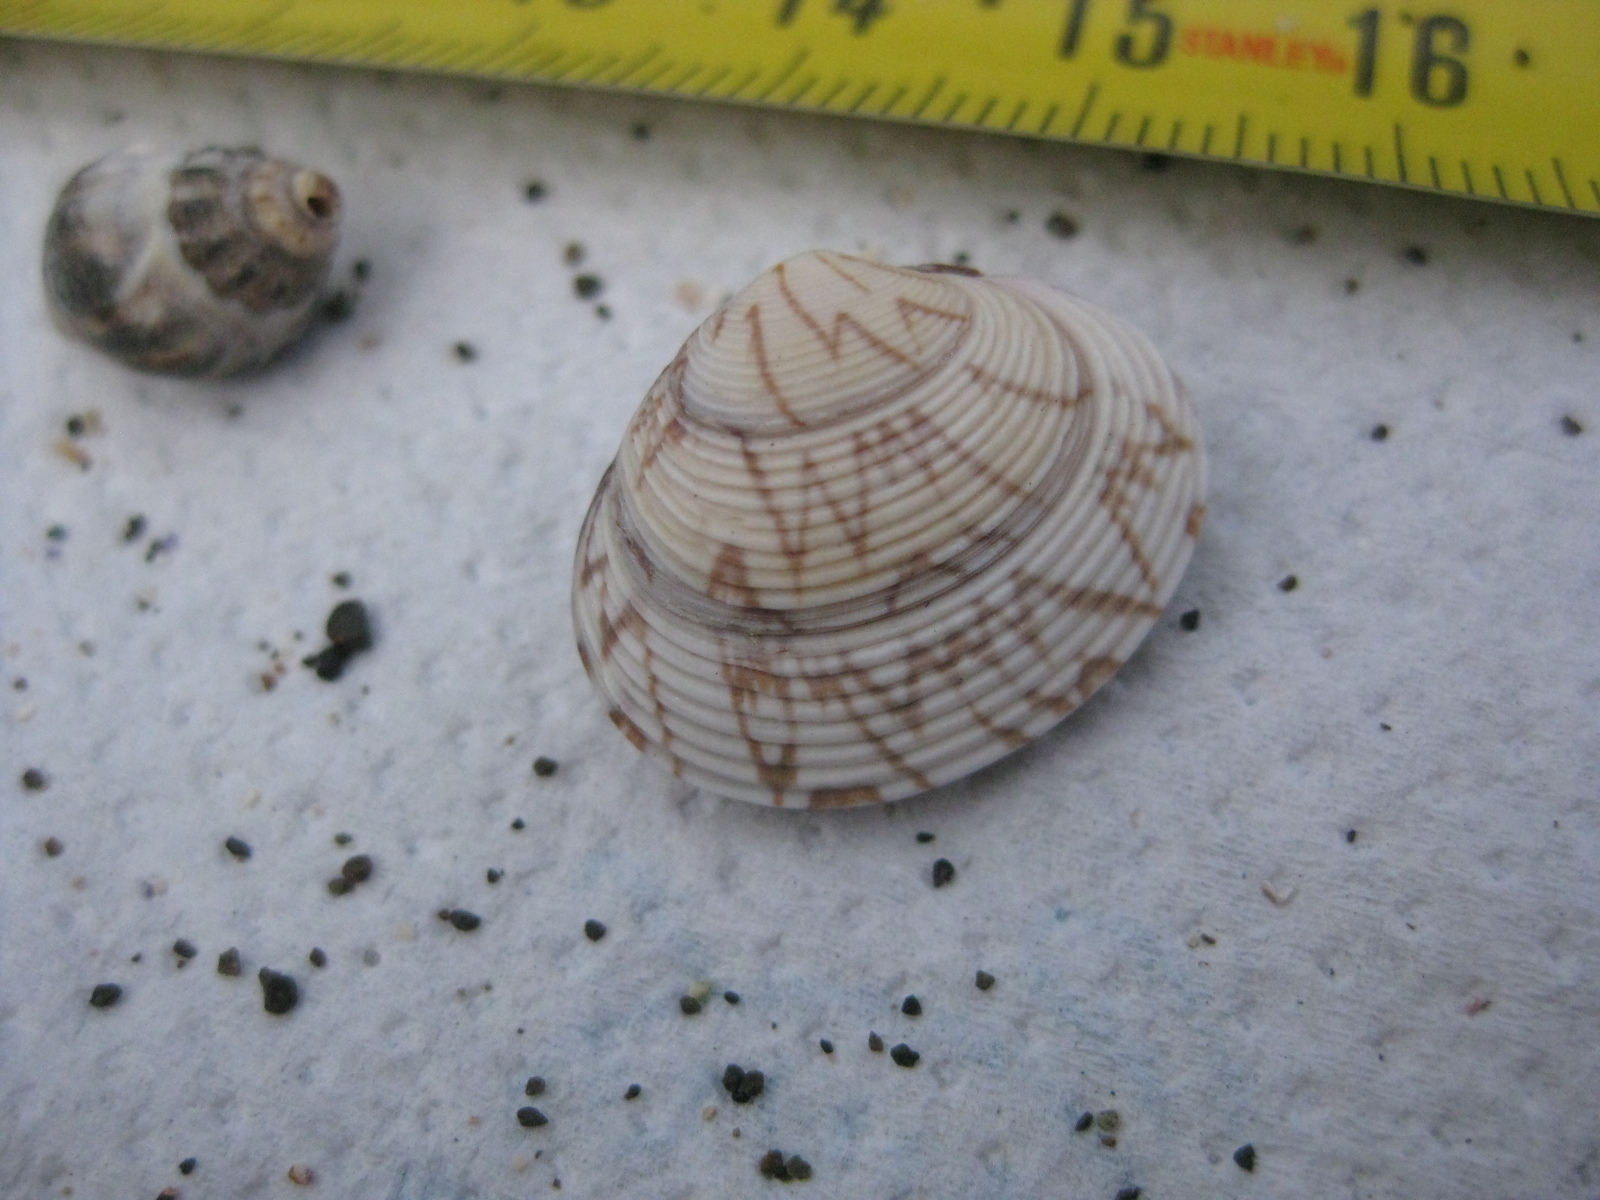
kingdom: Animalia
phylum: Mollusca
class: Bivalvia
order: Venerida
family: Veneridae
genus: Tawera
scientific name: Tawera spissa
